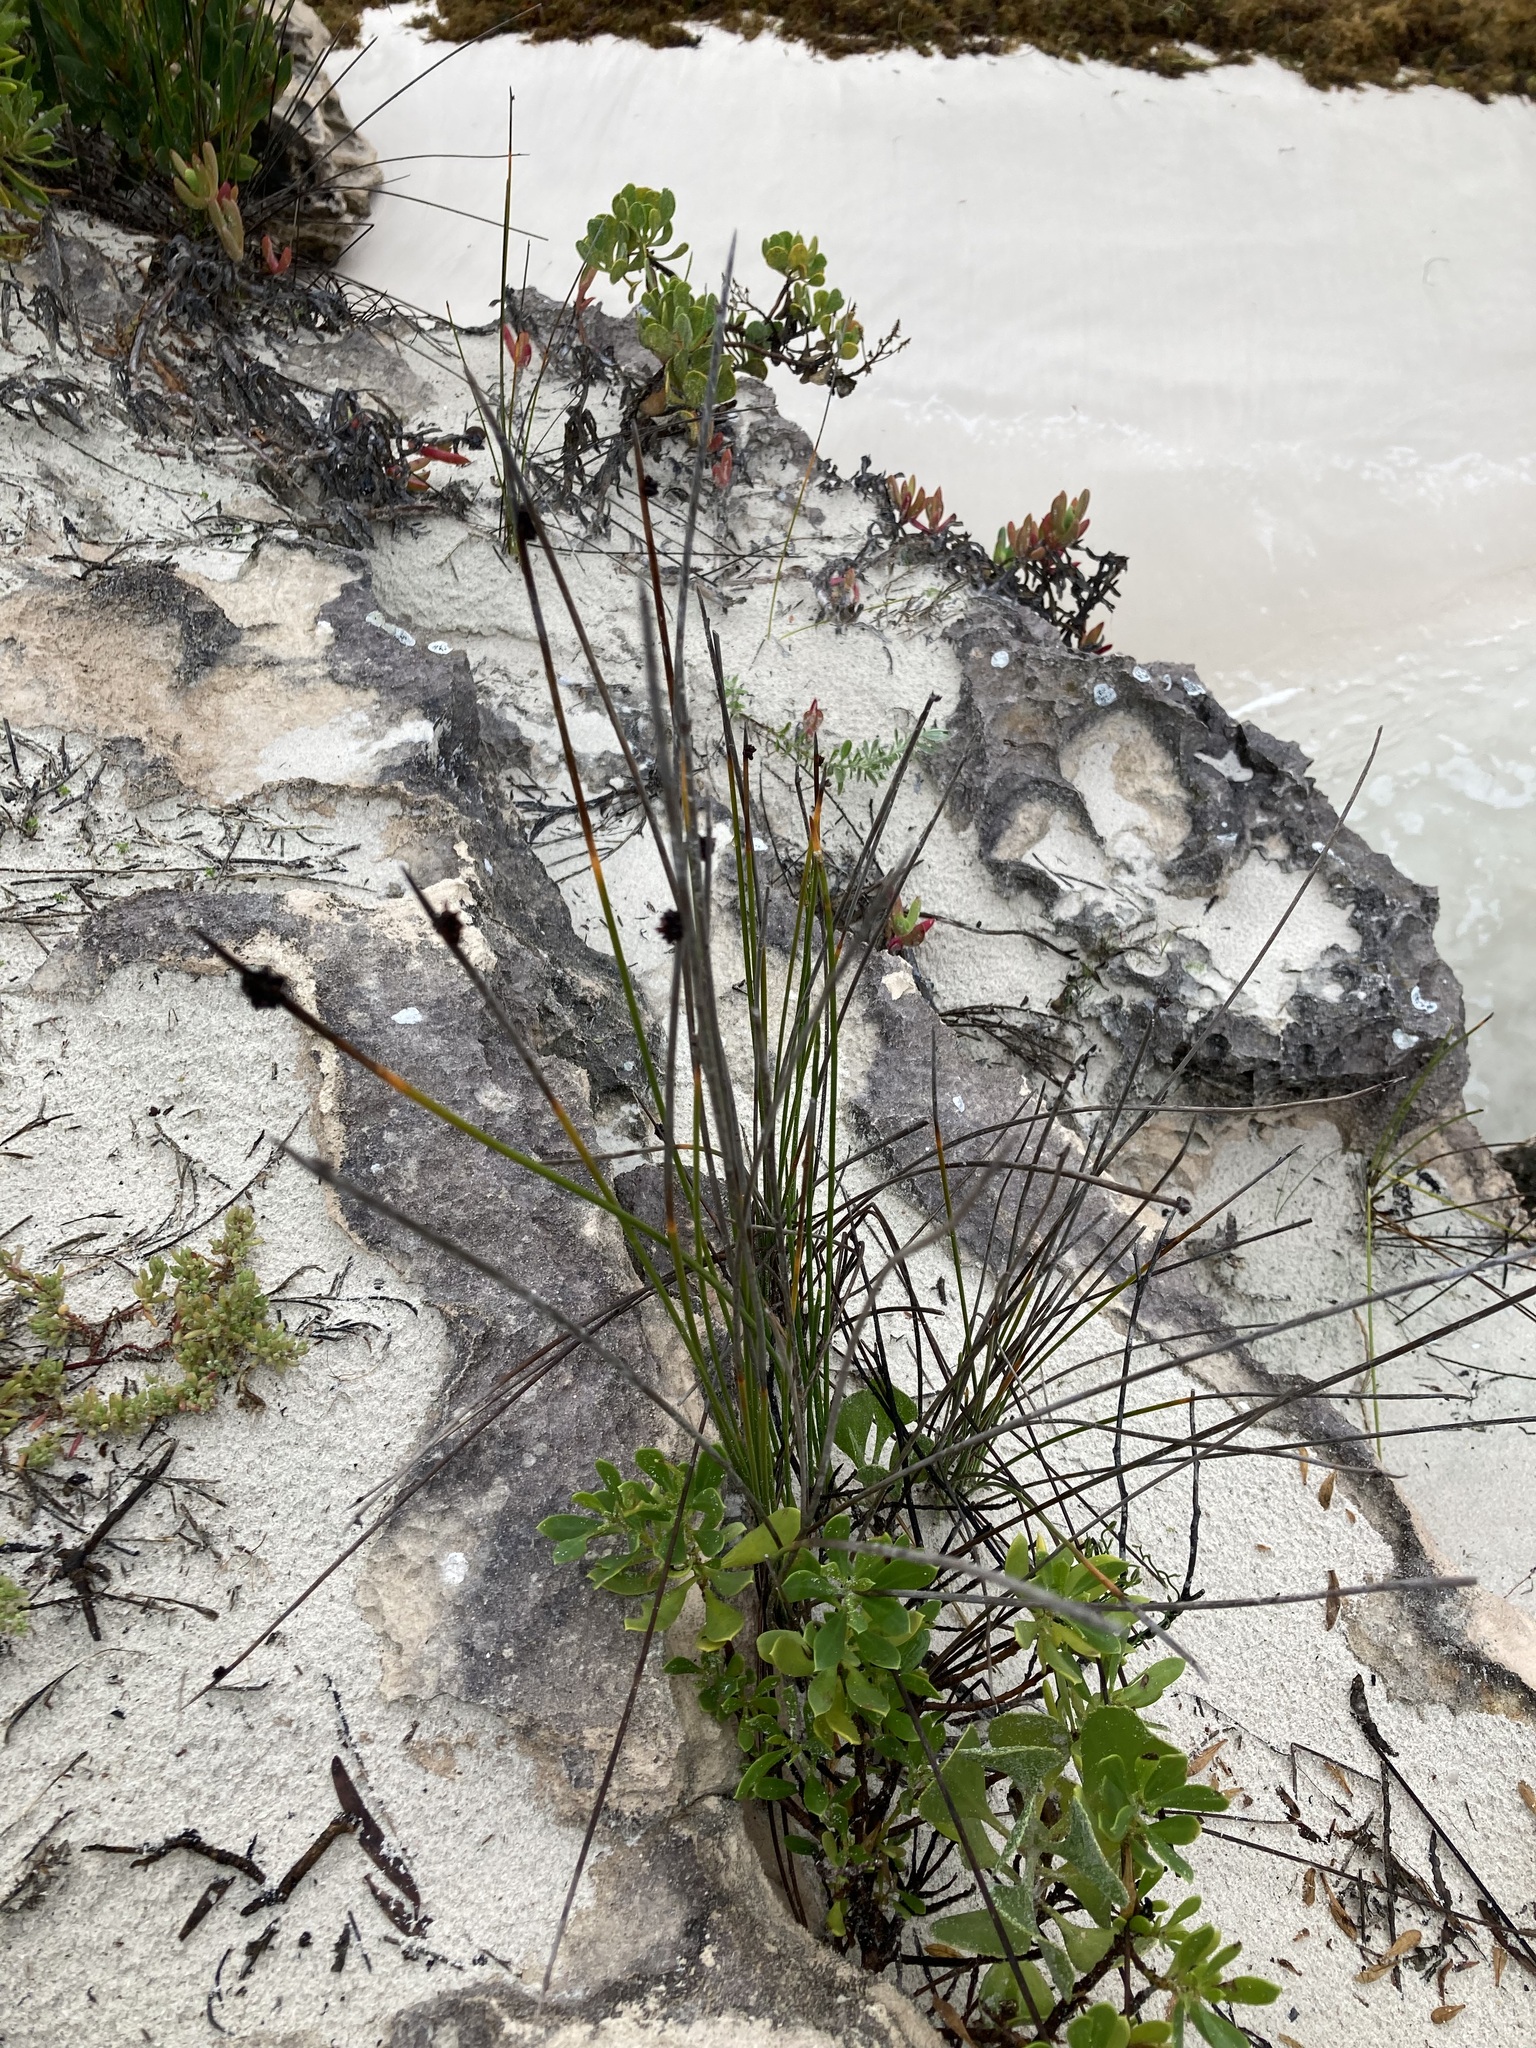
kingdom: Plantae
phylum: Tracheophyta
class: Liliopsida
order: Poales
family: Cyperaceae
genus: Ficinia
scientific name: Ficinia nodosa
